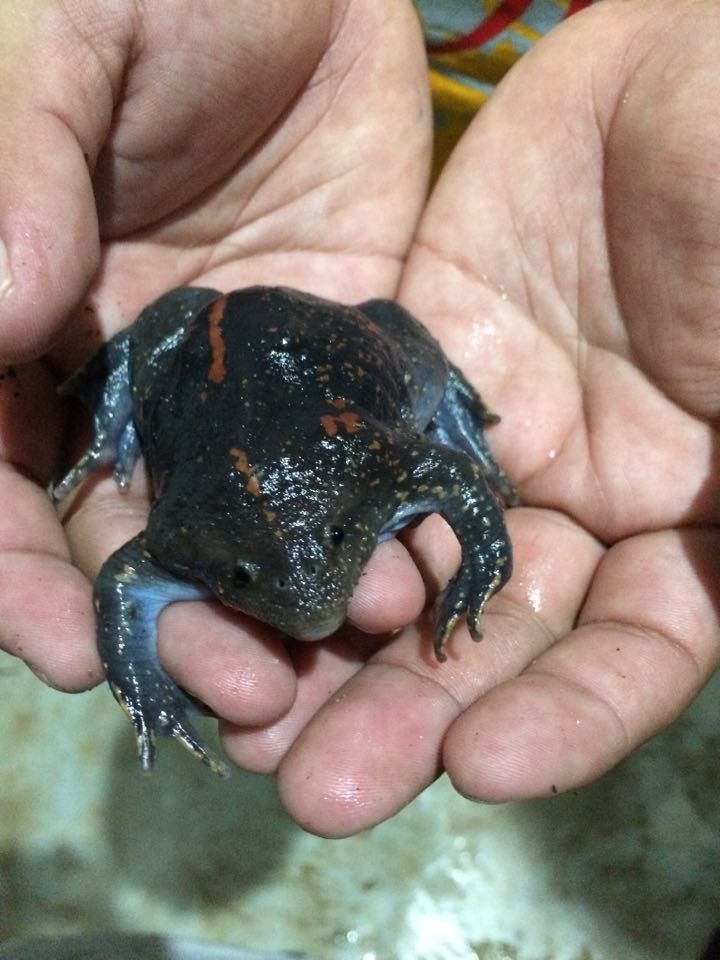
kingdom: Animalia
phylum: Chordata
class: Amphibia
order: Anura
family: Rhinophrynidae
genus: Rhinophrynus
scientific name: Rhinophrynus dorsalis
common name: Mexican burrowing toad
